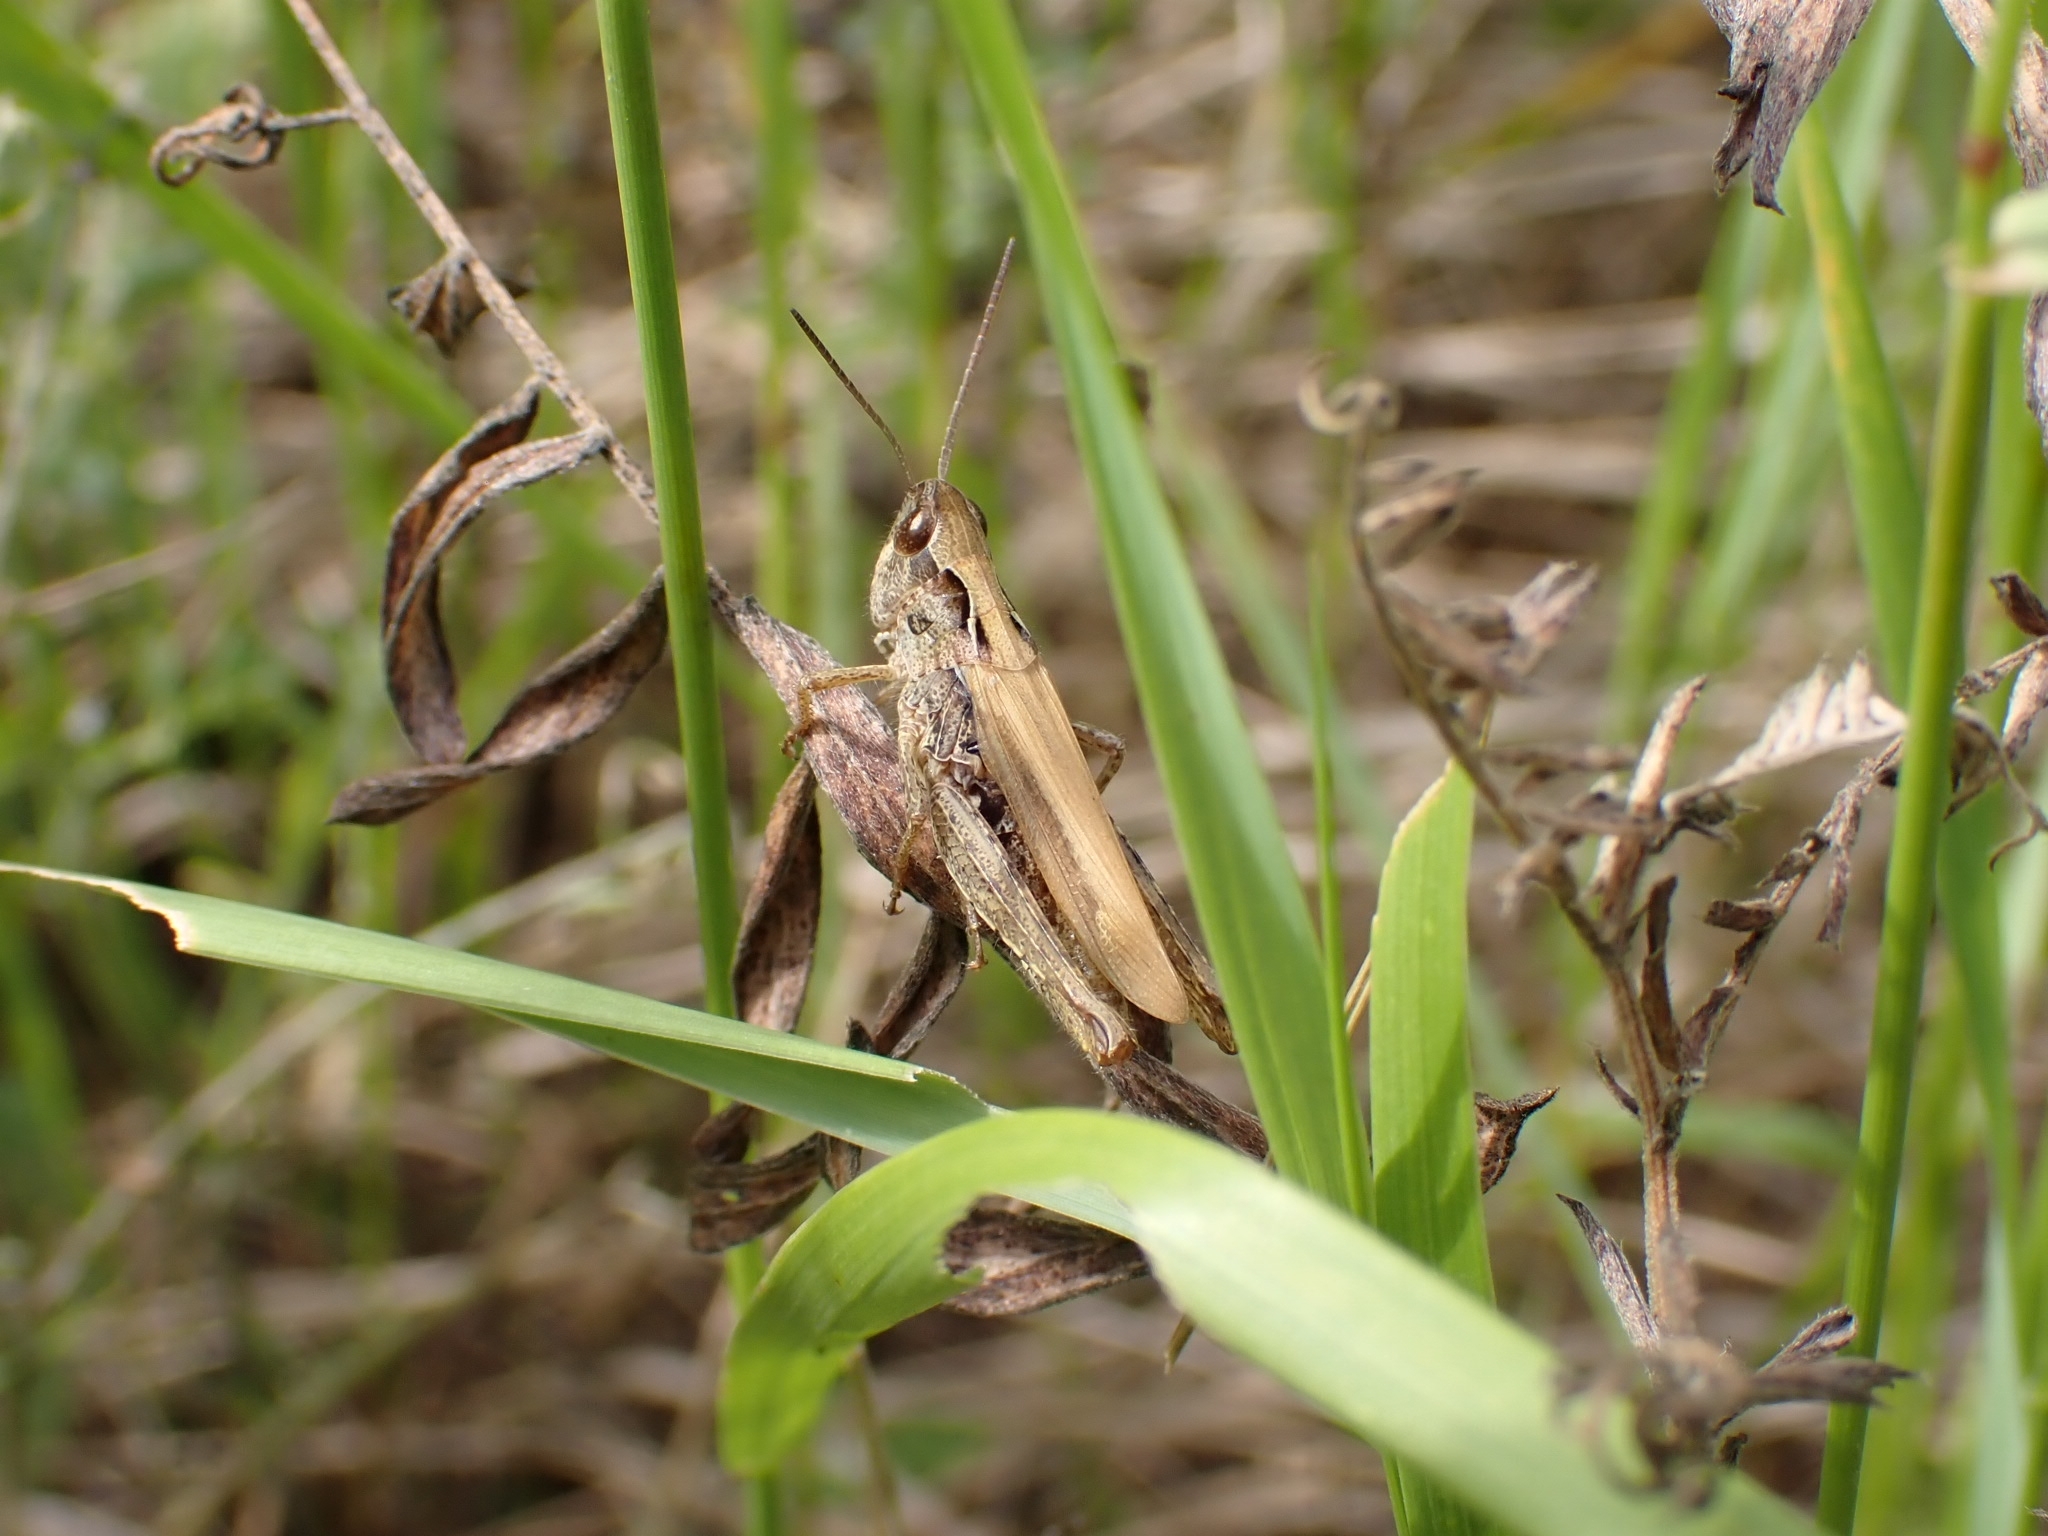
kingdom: Animalia
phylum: Arthropoda
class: Insecta
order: Orthoptera
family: Acrididae
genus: Chorthippus
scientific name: Chorthippus apricarius
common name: Upland field grasshopper
